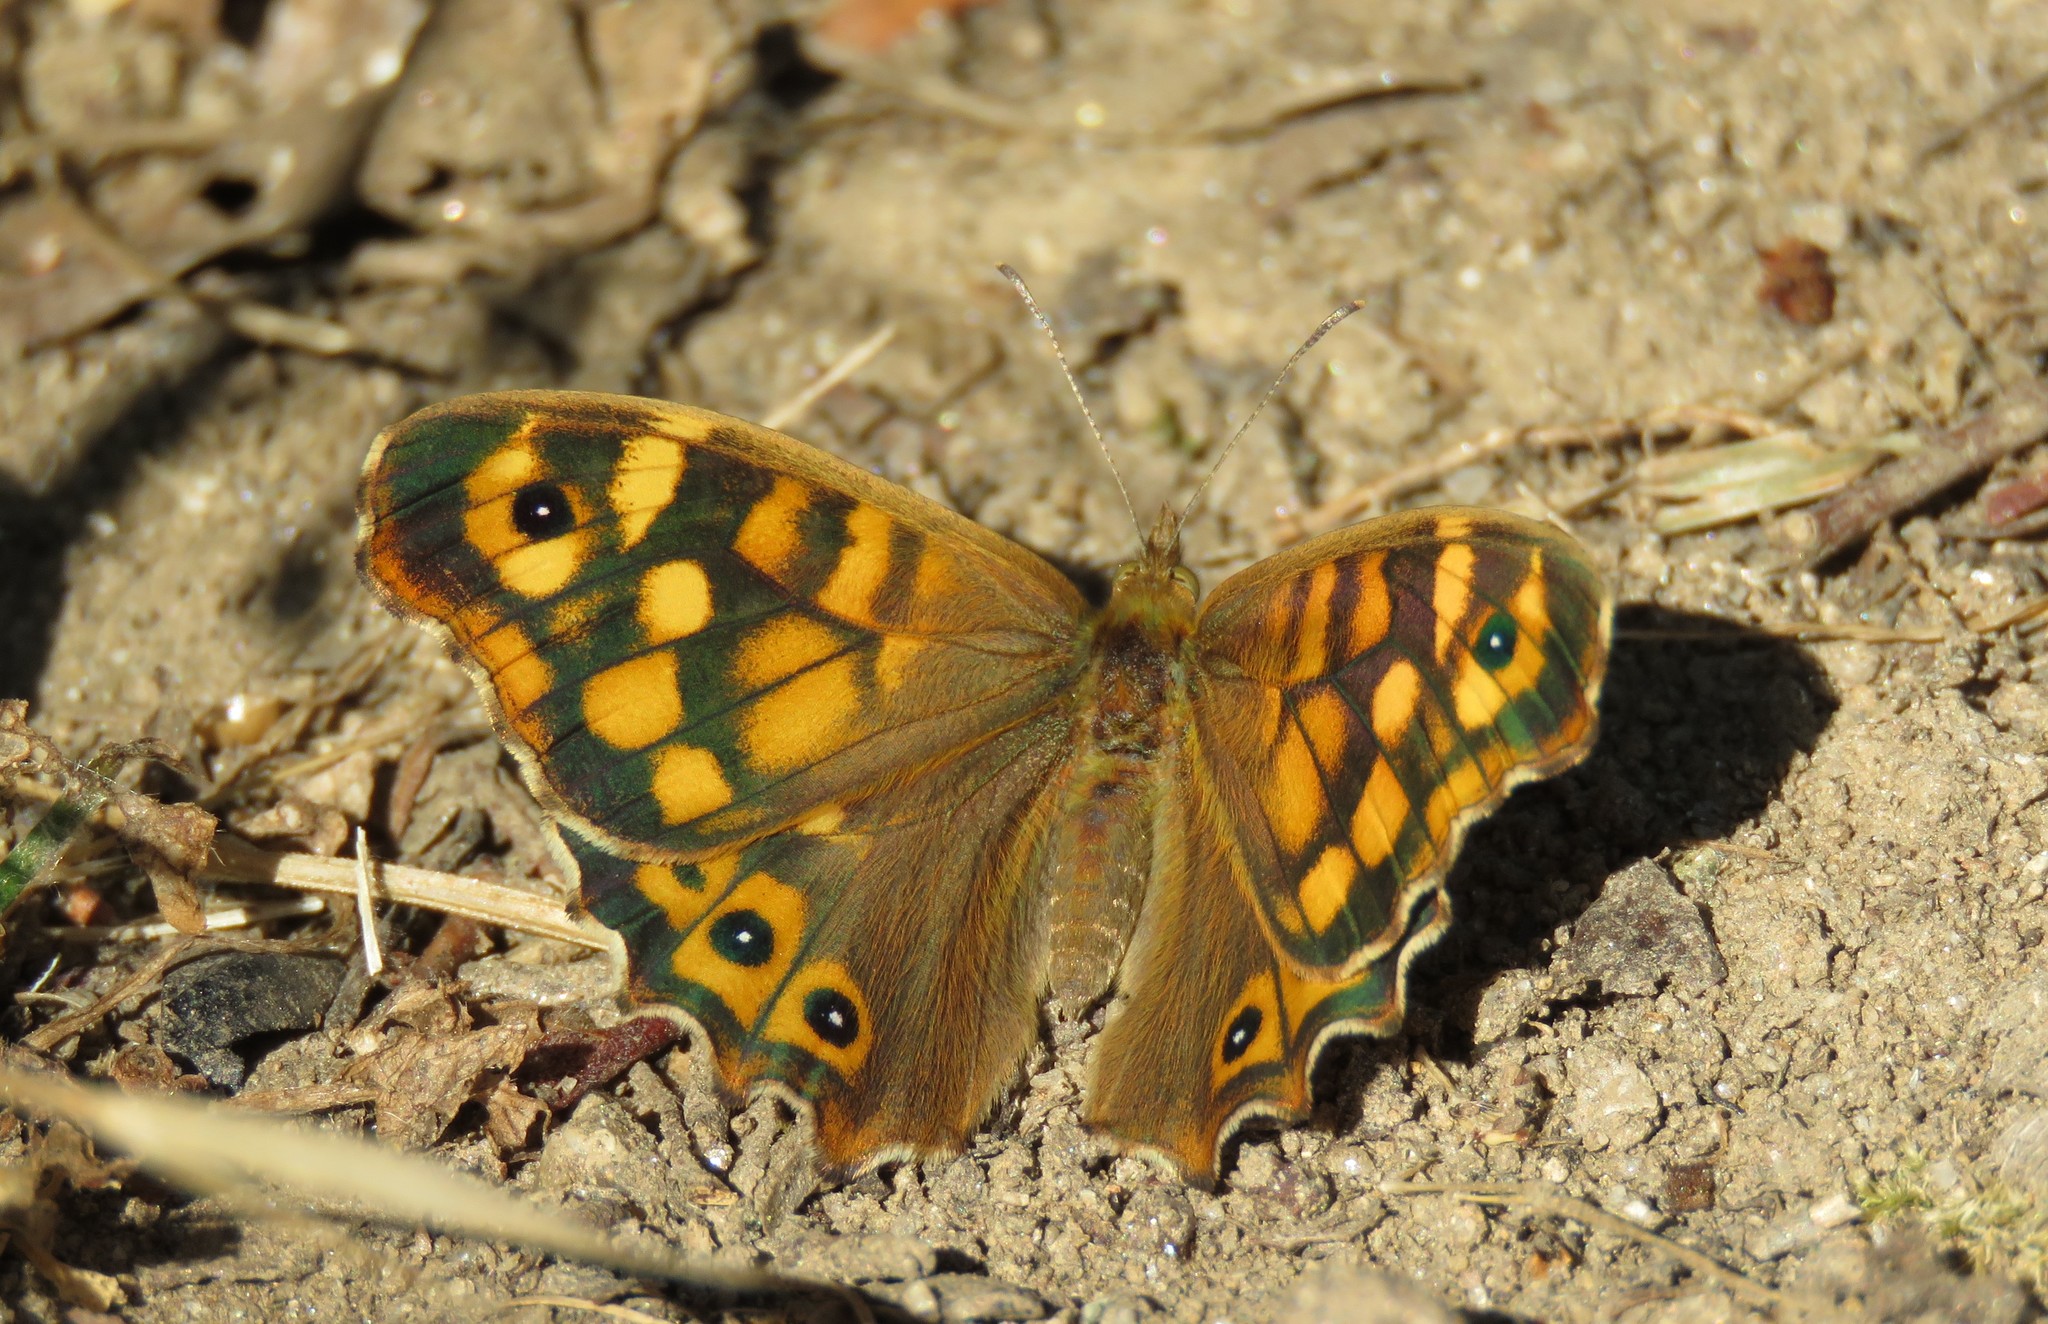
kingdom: Animalia
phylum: Arthropoda
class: Insecta
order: Lepidoptera
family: Nymphalidae
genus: Pararge
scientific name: Pararge aegeria
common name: Speckled wood
